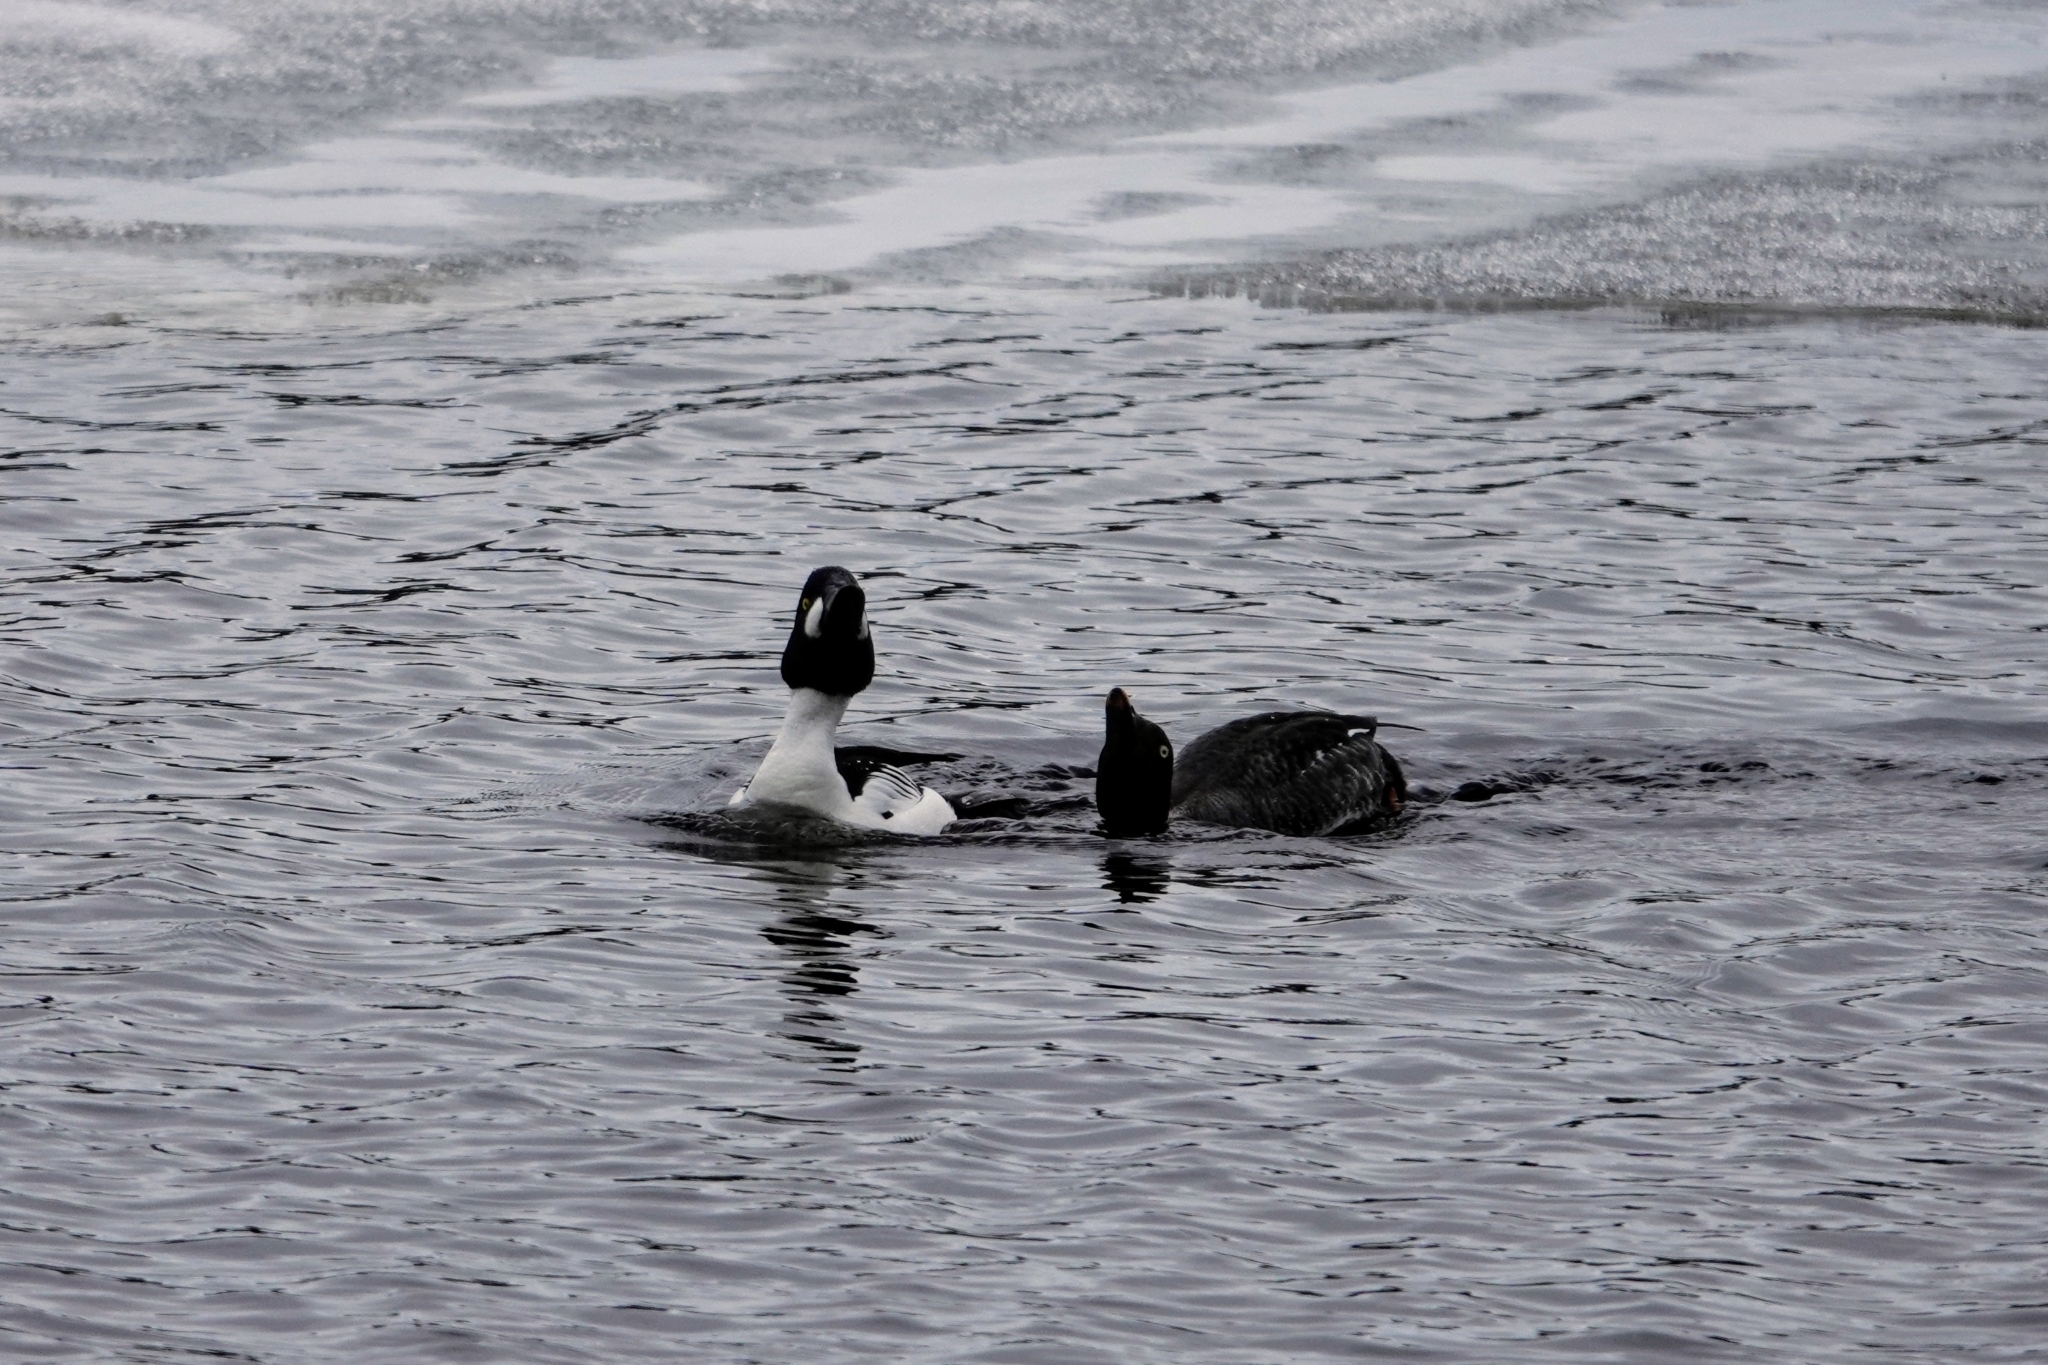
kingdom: Animalia
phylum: Chordata
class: Aves
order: Anseriformes
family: Anatidae
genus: Bucephala
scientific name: Bucephala clangula
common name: Common goldeneye
